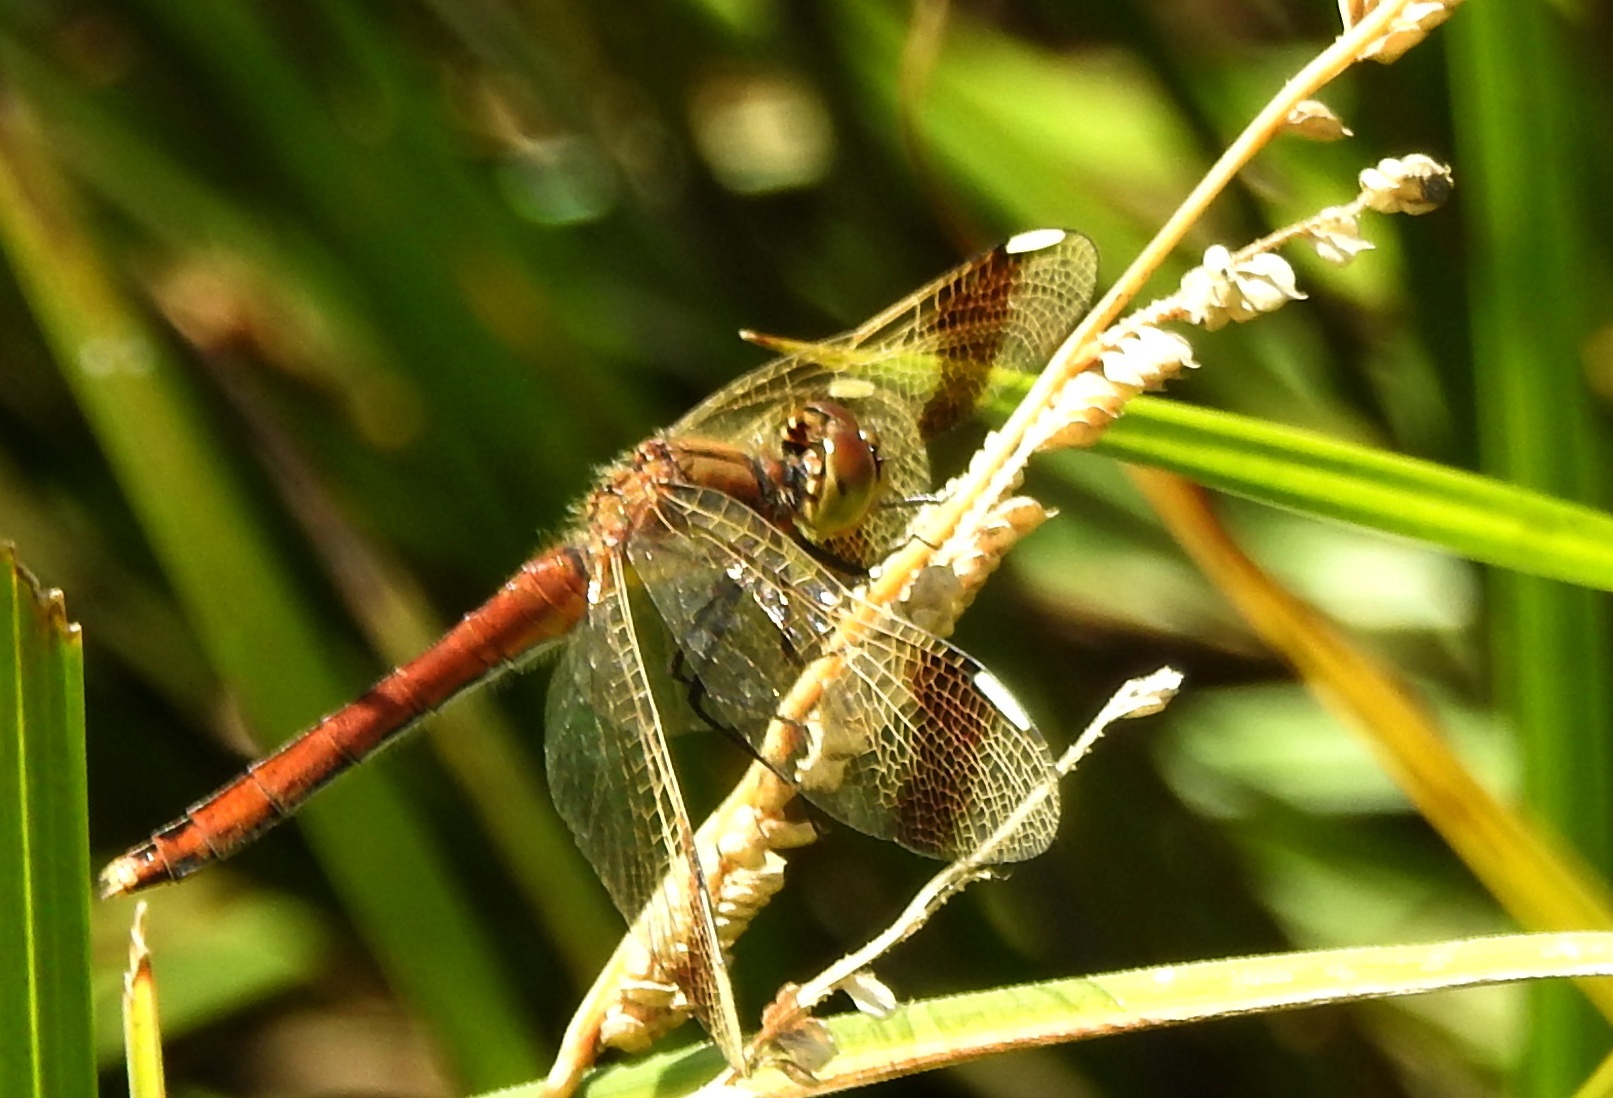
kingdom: Animalia
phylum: Arthropoda
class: Insecta
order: Odonata
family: Libellulidae
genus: Sympetrum
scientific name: Sympetrum pedemontanum
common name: Banded darter
